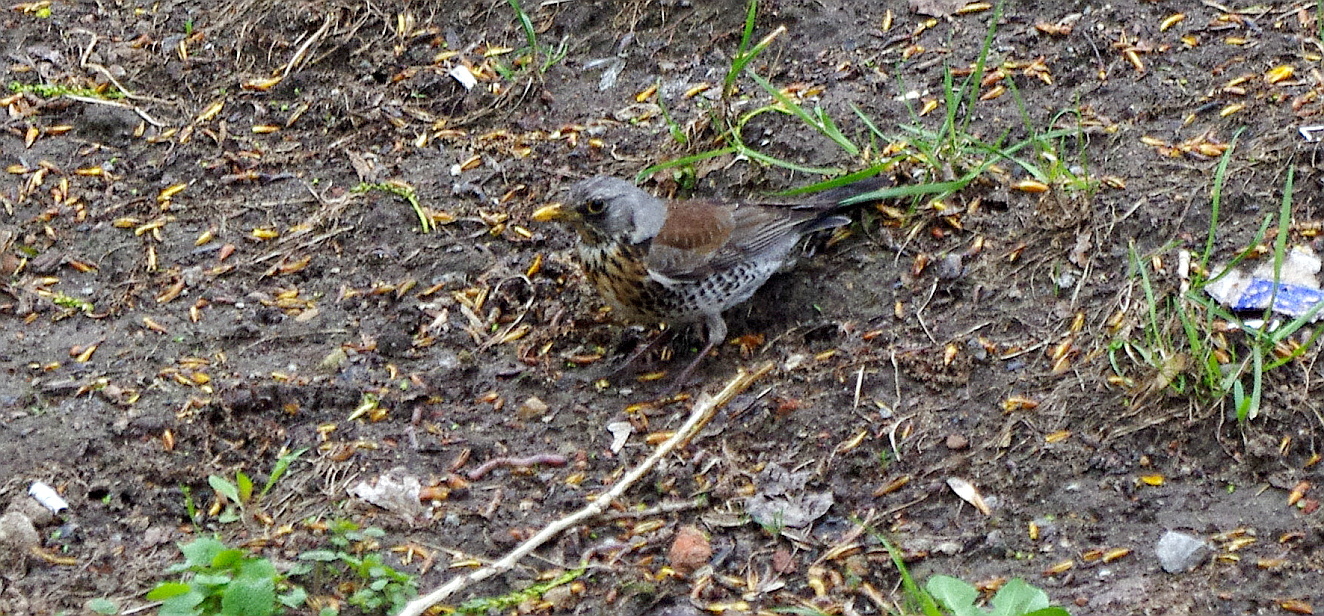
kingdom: Animalia
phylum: Chordata
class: Aves
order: Passeriformes
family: Turdidae
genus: Turdus
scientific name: Turdus pilaris
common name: Fieldfare
